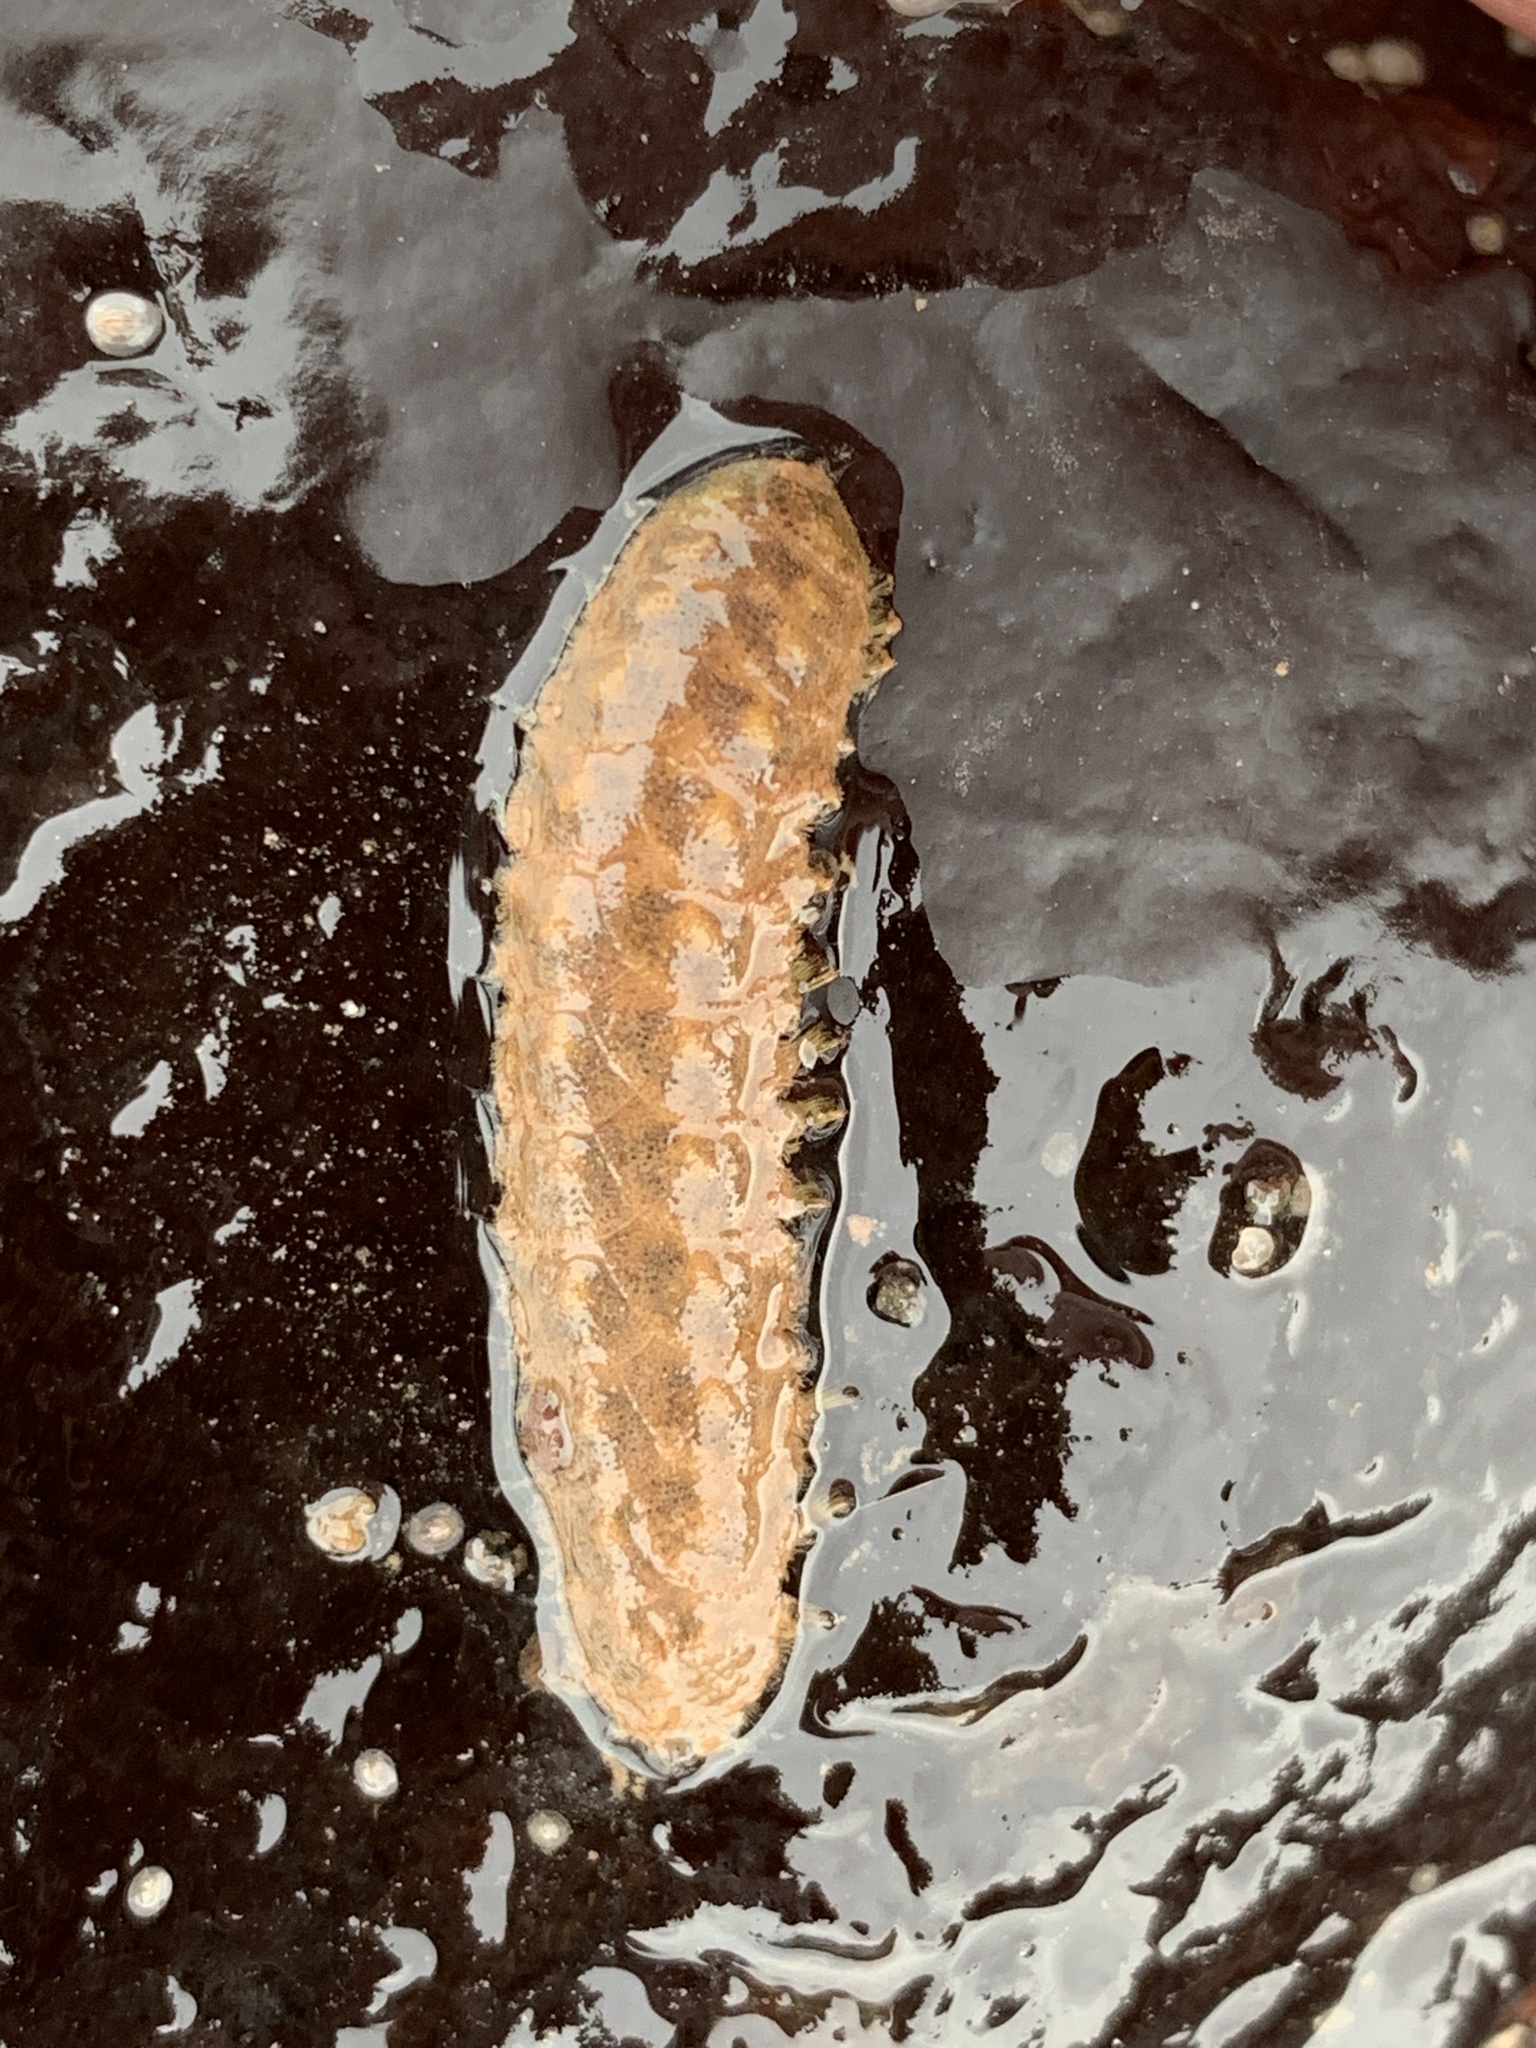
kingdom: Animalia
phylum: Annelida
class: Polychaeta
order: Phyllodocida
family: Polynoidae
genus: Lepidonotus
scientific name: Lepidonotus squamatus
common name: Twelve-scaled worm
